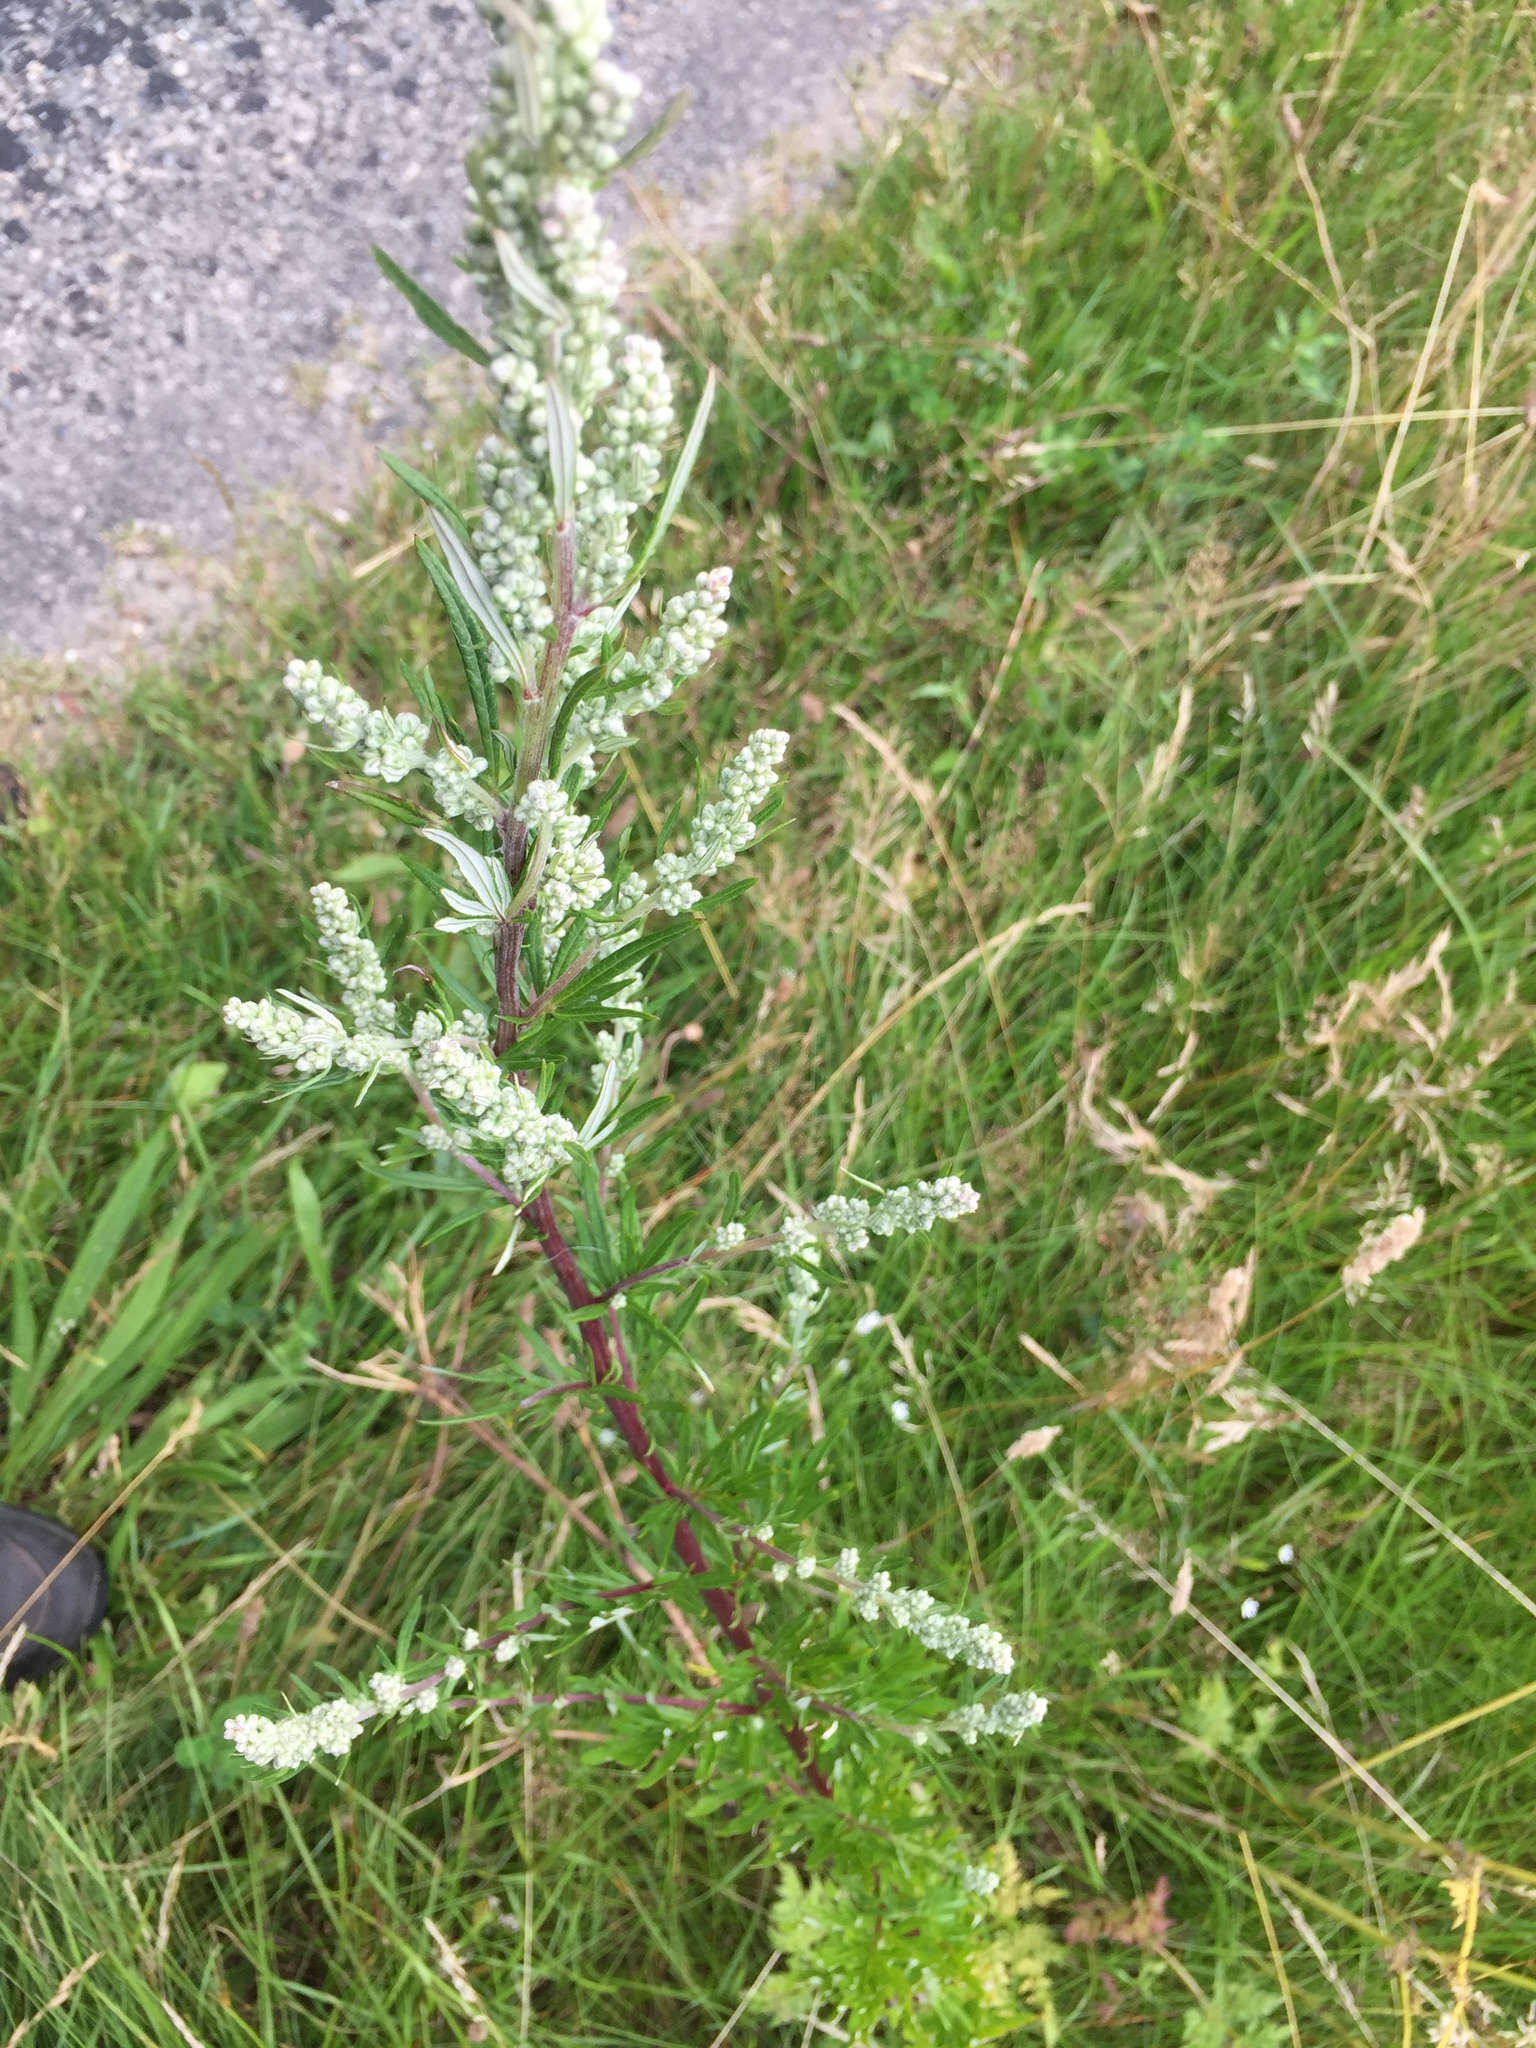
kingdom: Plantae
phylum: Tracheophyta
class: Magnoliopsida
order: Asterales
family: Asteraceae
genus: Artemisia
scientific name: Artemisia vulgaris
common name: Mugwort
